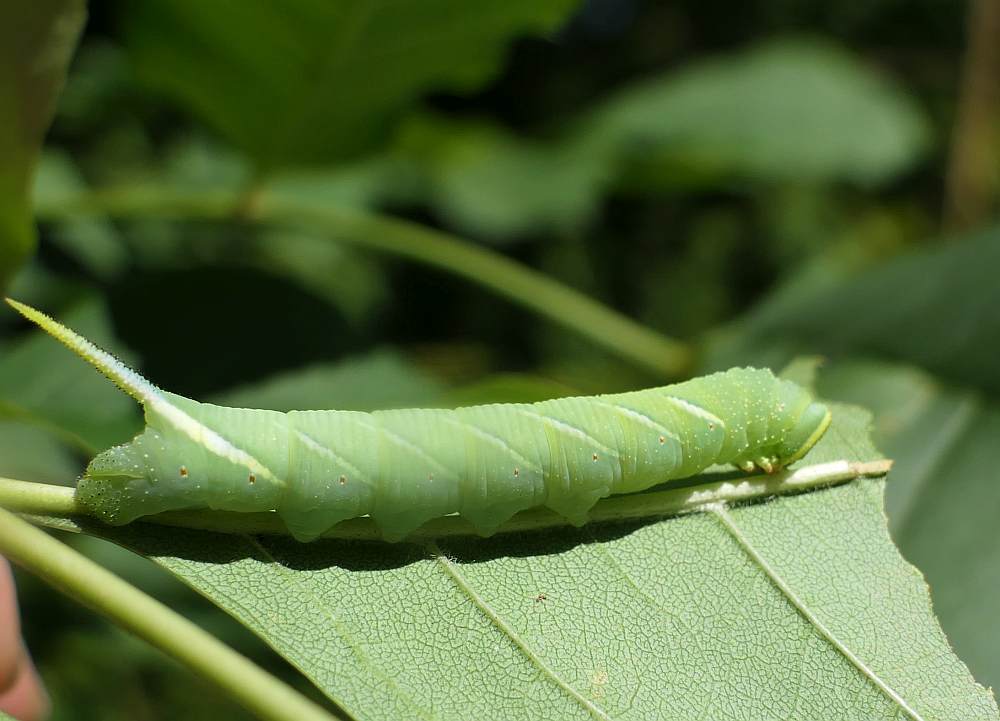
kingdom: Animalia
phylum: Arthropoda
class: Insecta
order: Lepidoptera
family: Sphingidae
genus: Ceratomia
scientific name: Ceratomia undulosa
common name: Waved sphinx
